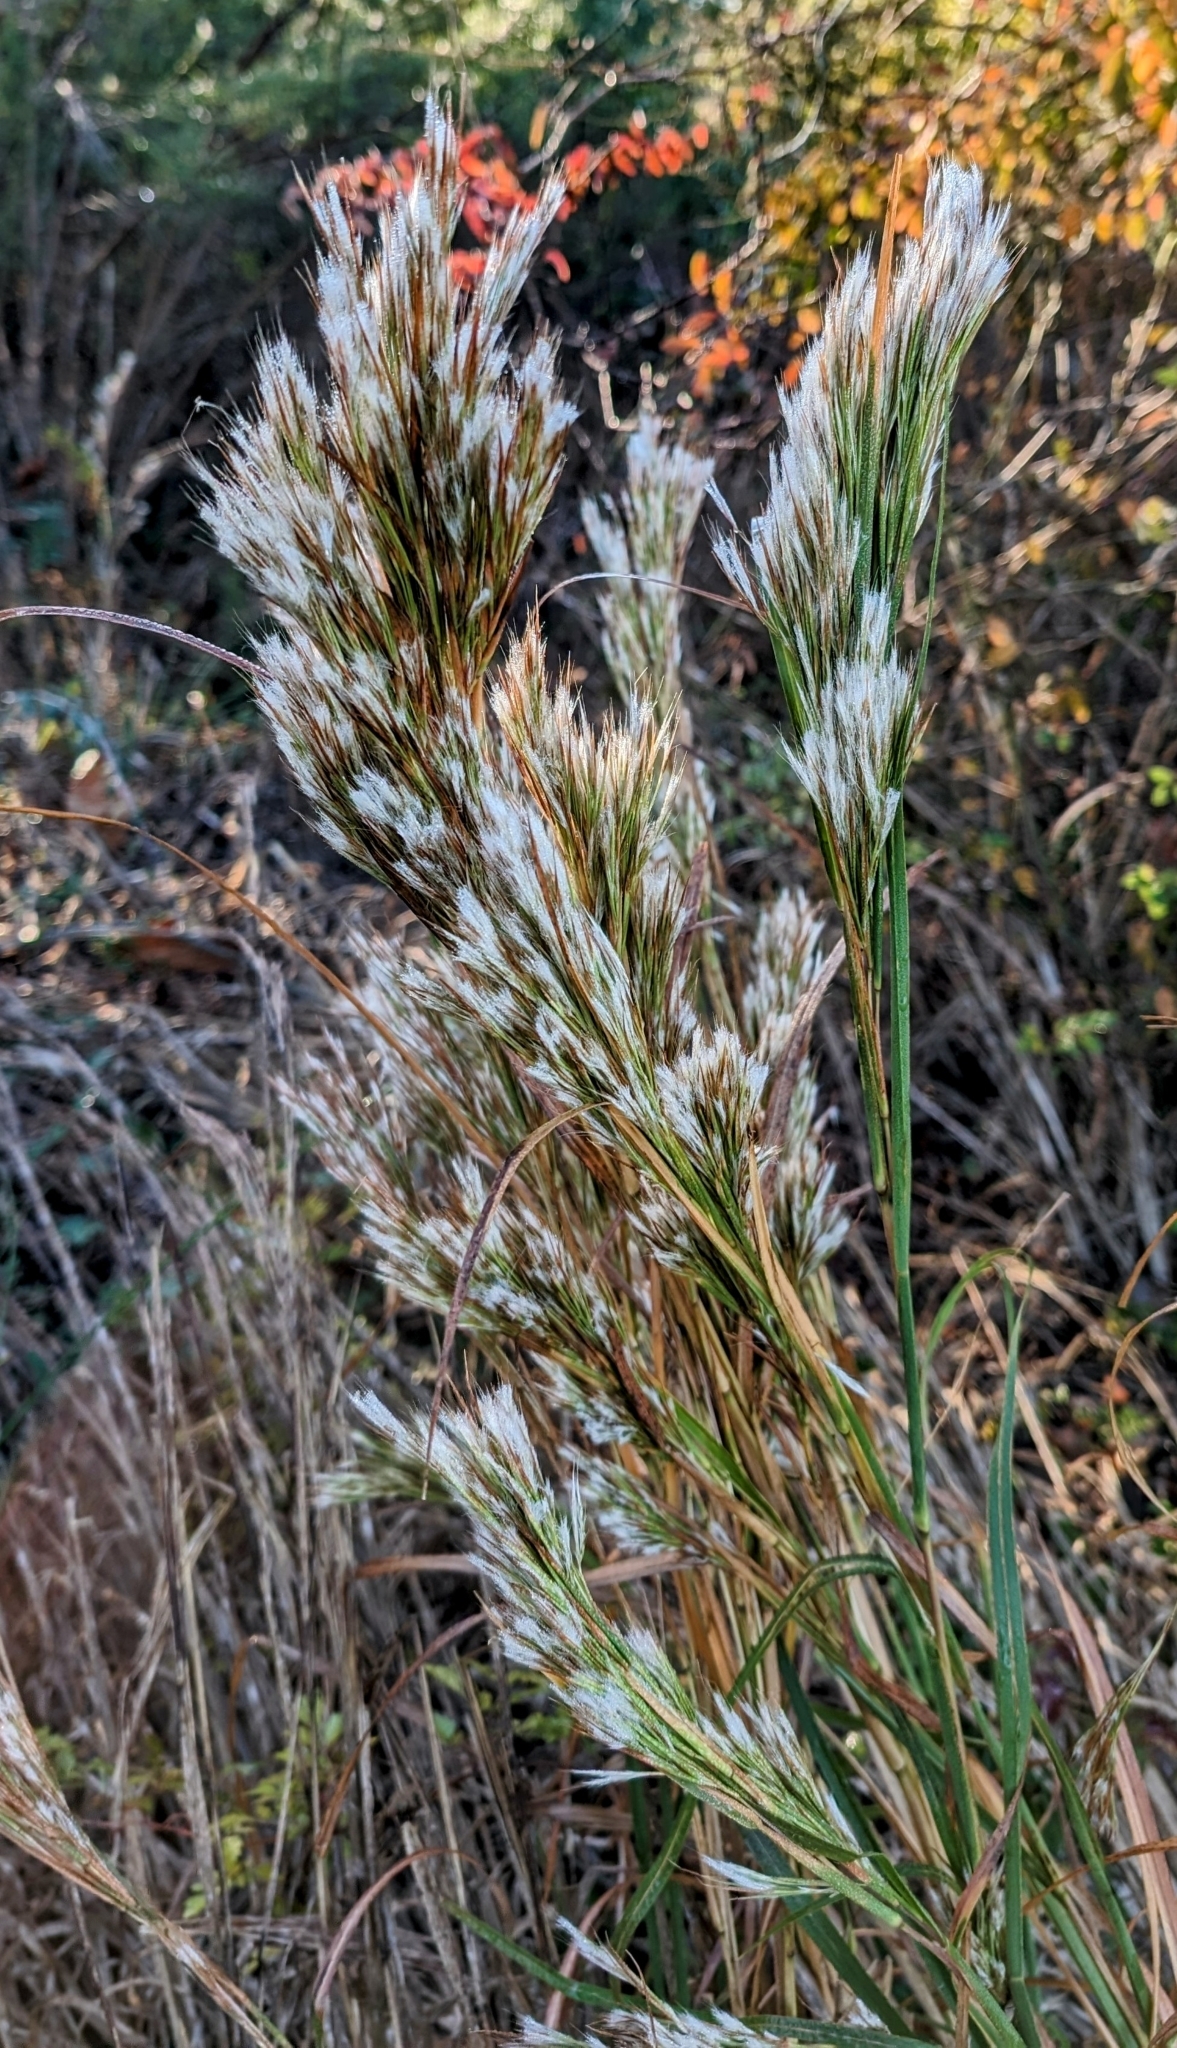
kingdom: Plantae
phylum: Tracheophyta
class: Liliopsida
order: Poales
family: Poaceae
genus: Andropogon
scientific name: Andropogon tenuispatheus
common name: Bushy bluestem
